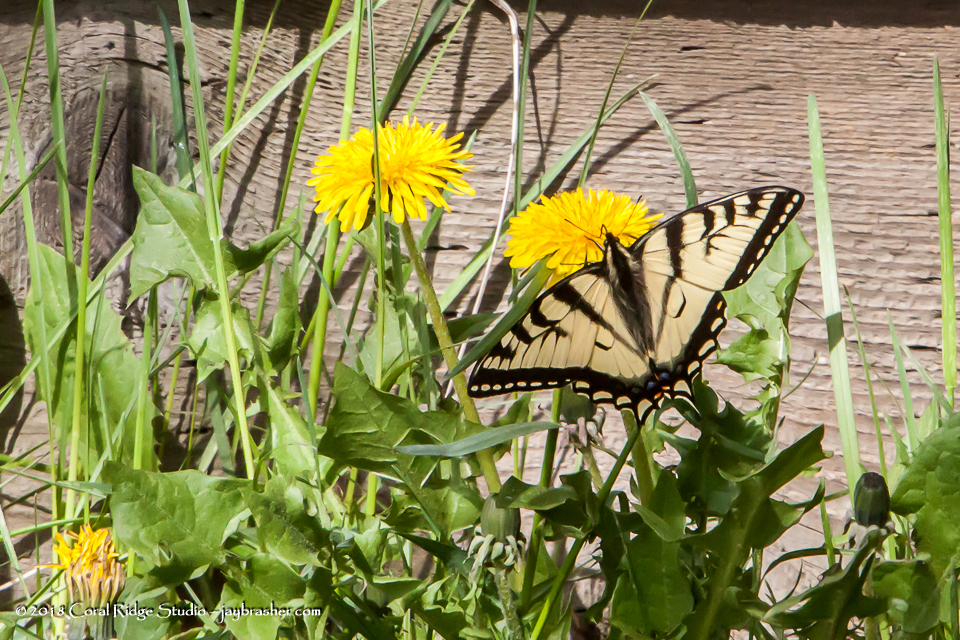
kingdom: Animalia
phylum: Arthropoda
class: Insecta
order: Lepidoptera
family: Papilionidae
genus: Papilio
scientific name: Papilio canadensis
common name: Canadian tiger swallowtail
